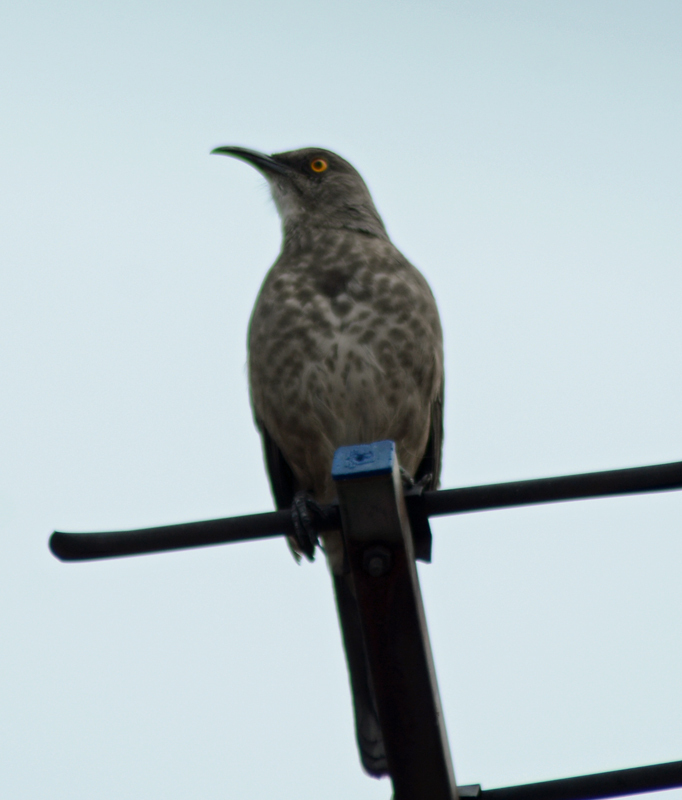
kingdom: Animalia
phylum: Chordata
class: Aves
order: Passeriformes
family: Mimidae
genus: Toxostoma
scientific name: Toxostoma curvirostre
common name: Curve-billed thrasher
